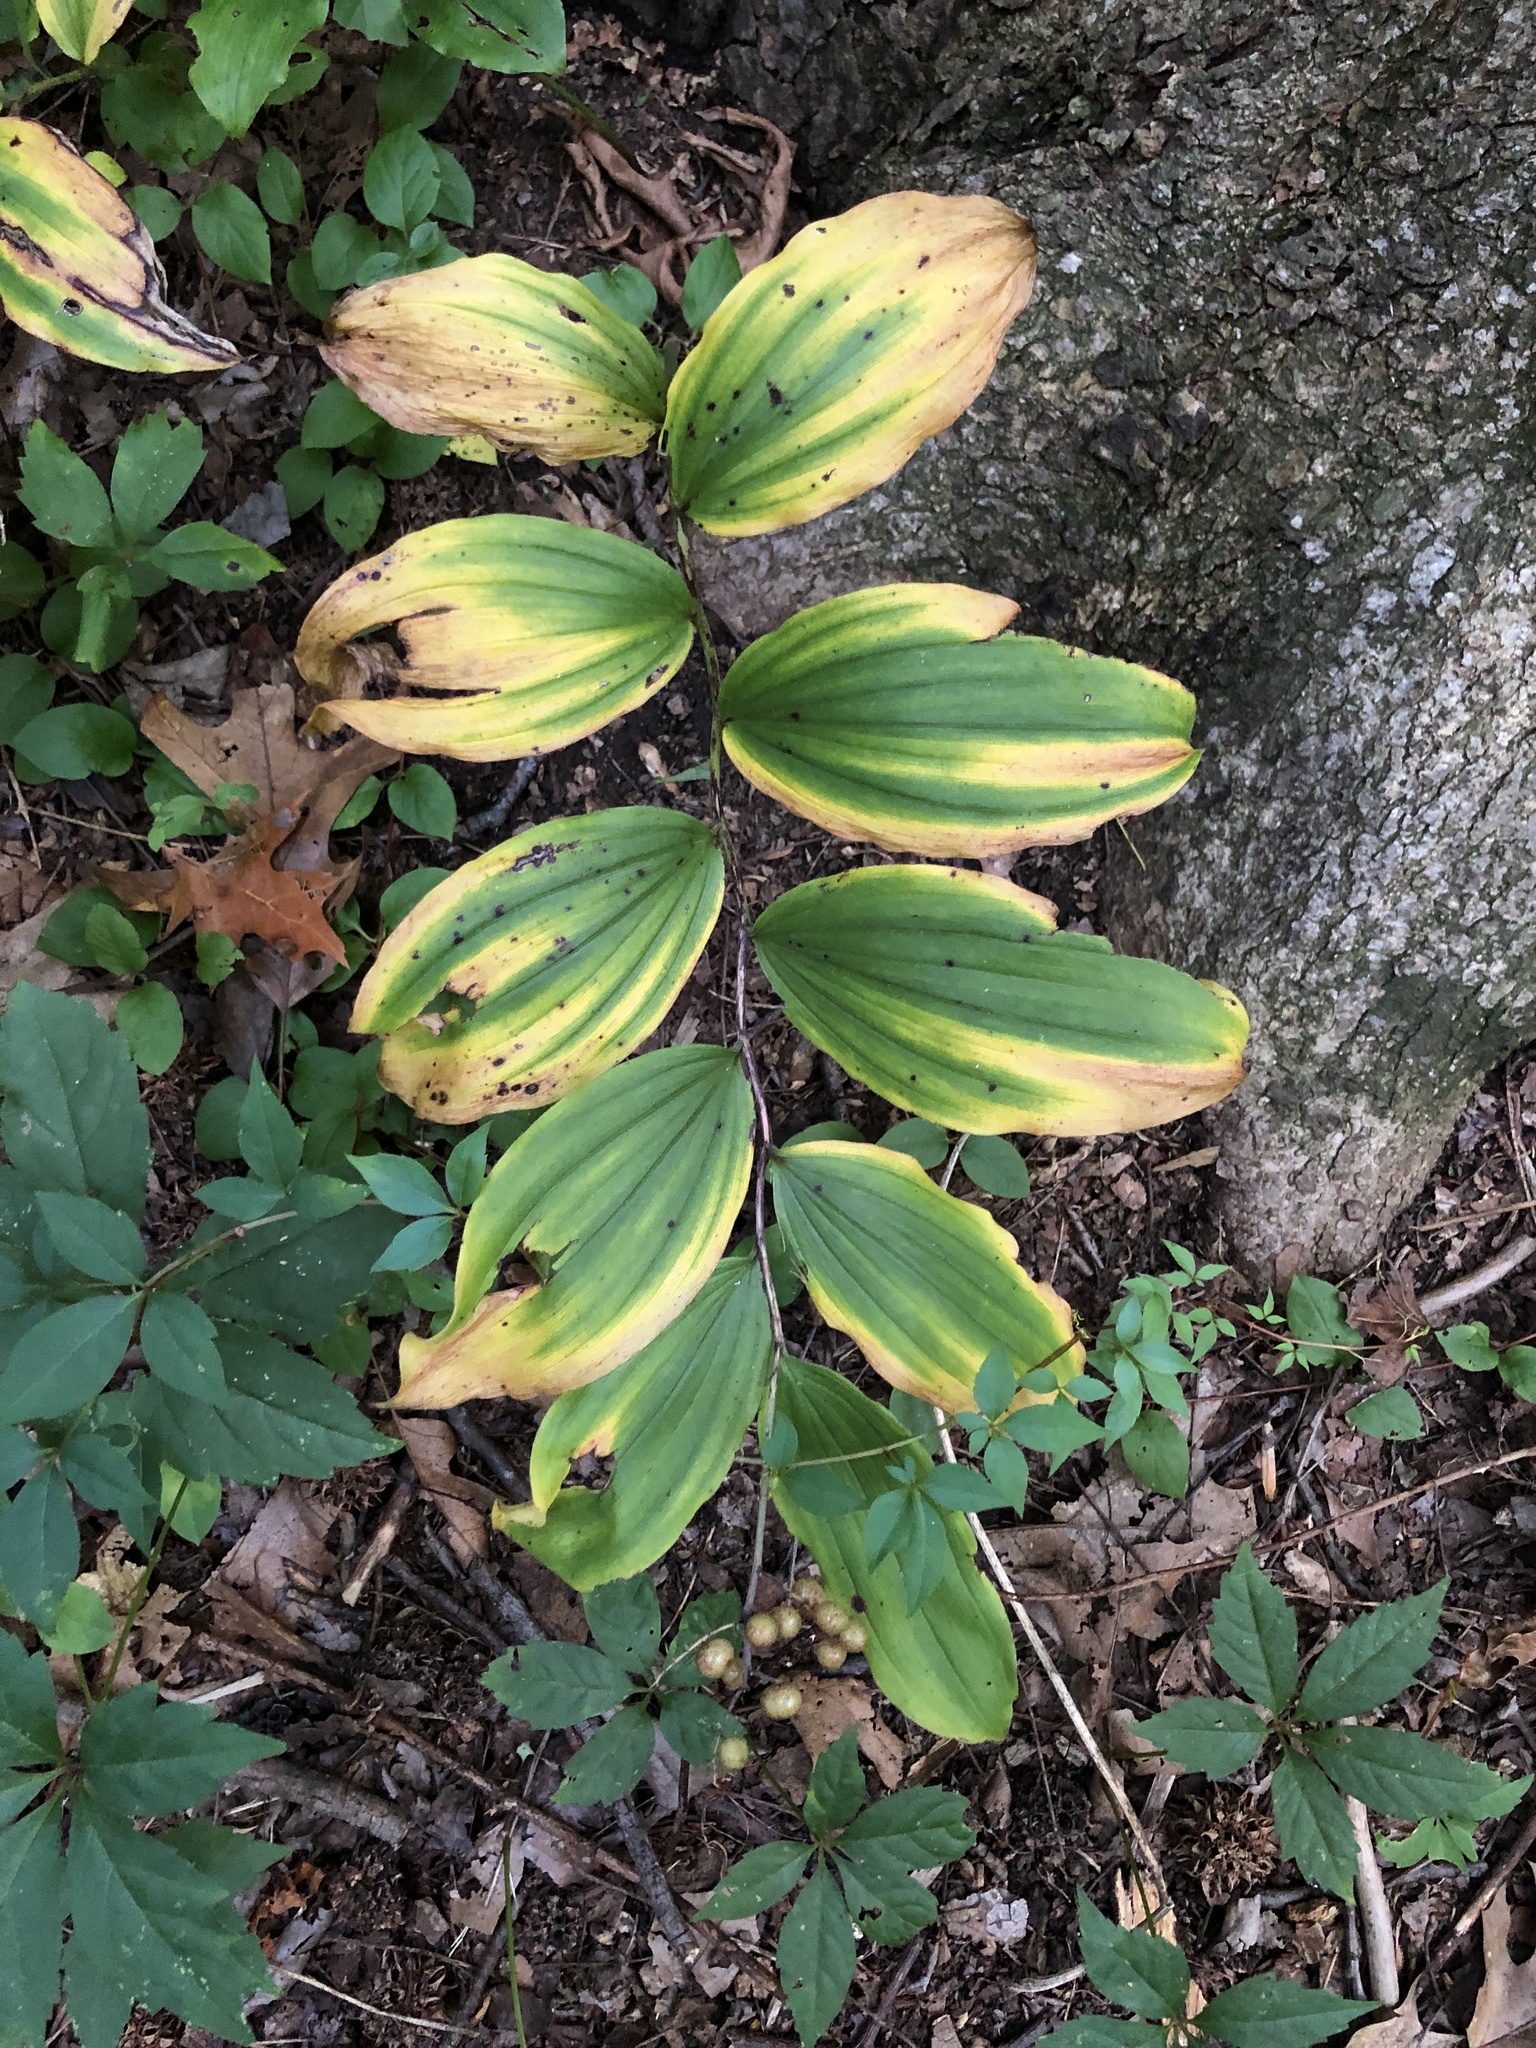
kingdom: Plantae
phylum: Tracheophyta
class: Liliopsida
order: Asparagales
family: Asparagaceae
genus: Maianthemum
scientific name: Maianthemum racemosum
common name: False spikenard
